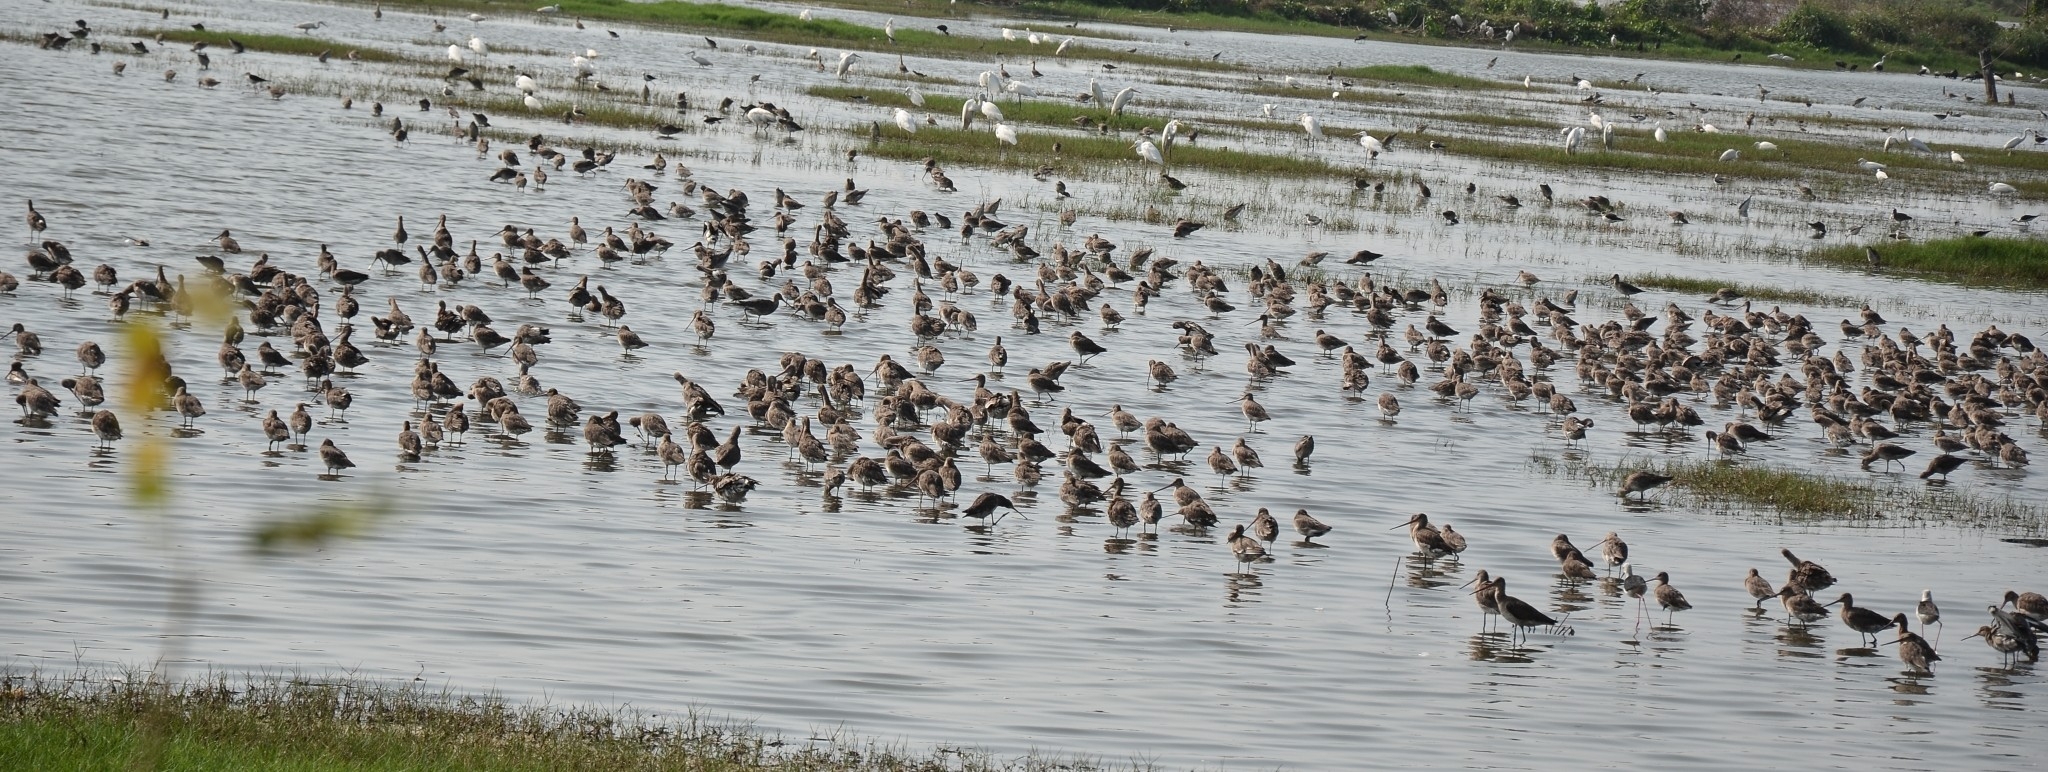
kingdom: Animalia
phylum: Chordata
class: Aves
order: Charadriiformes
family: Scolopacidae
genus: Limosa
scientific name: Limosa limosa
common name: Black-tailed godwit
